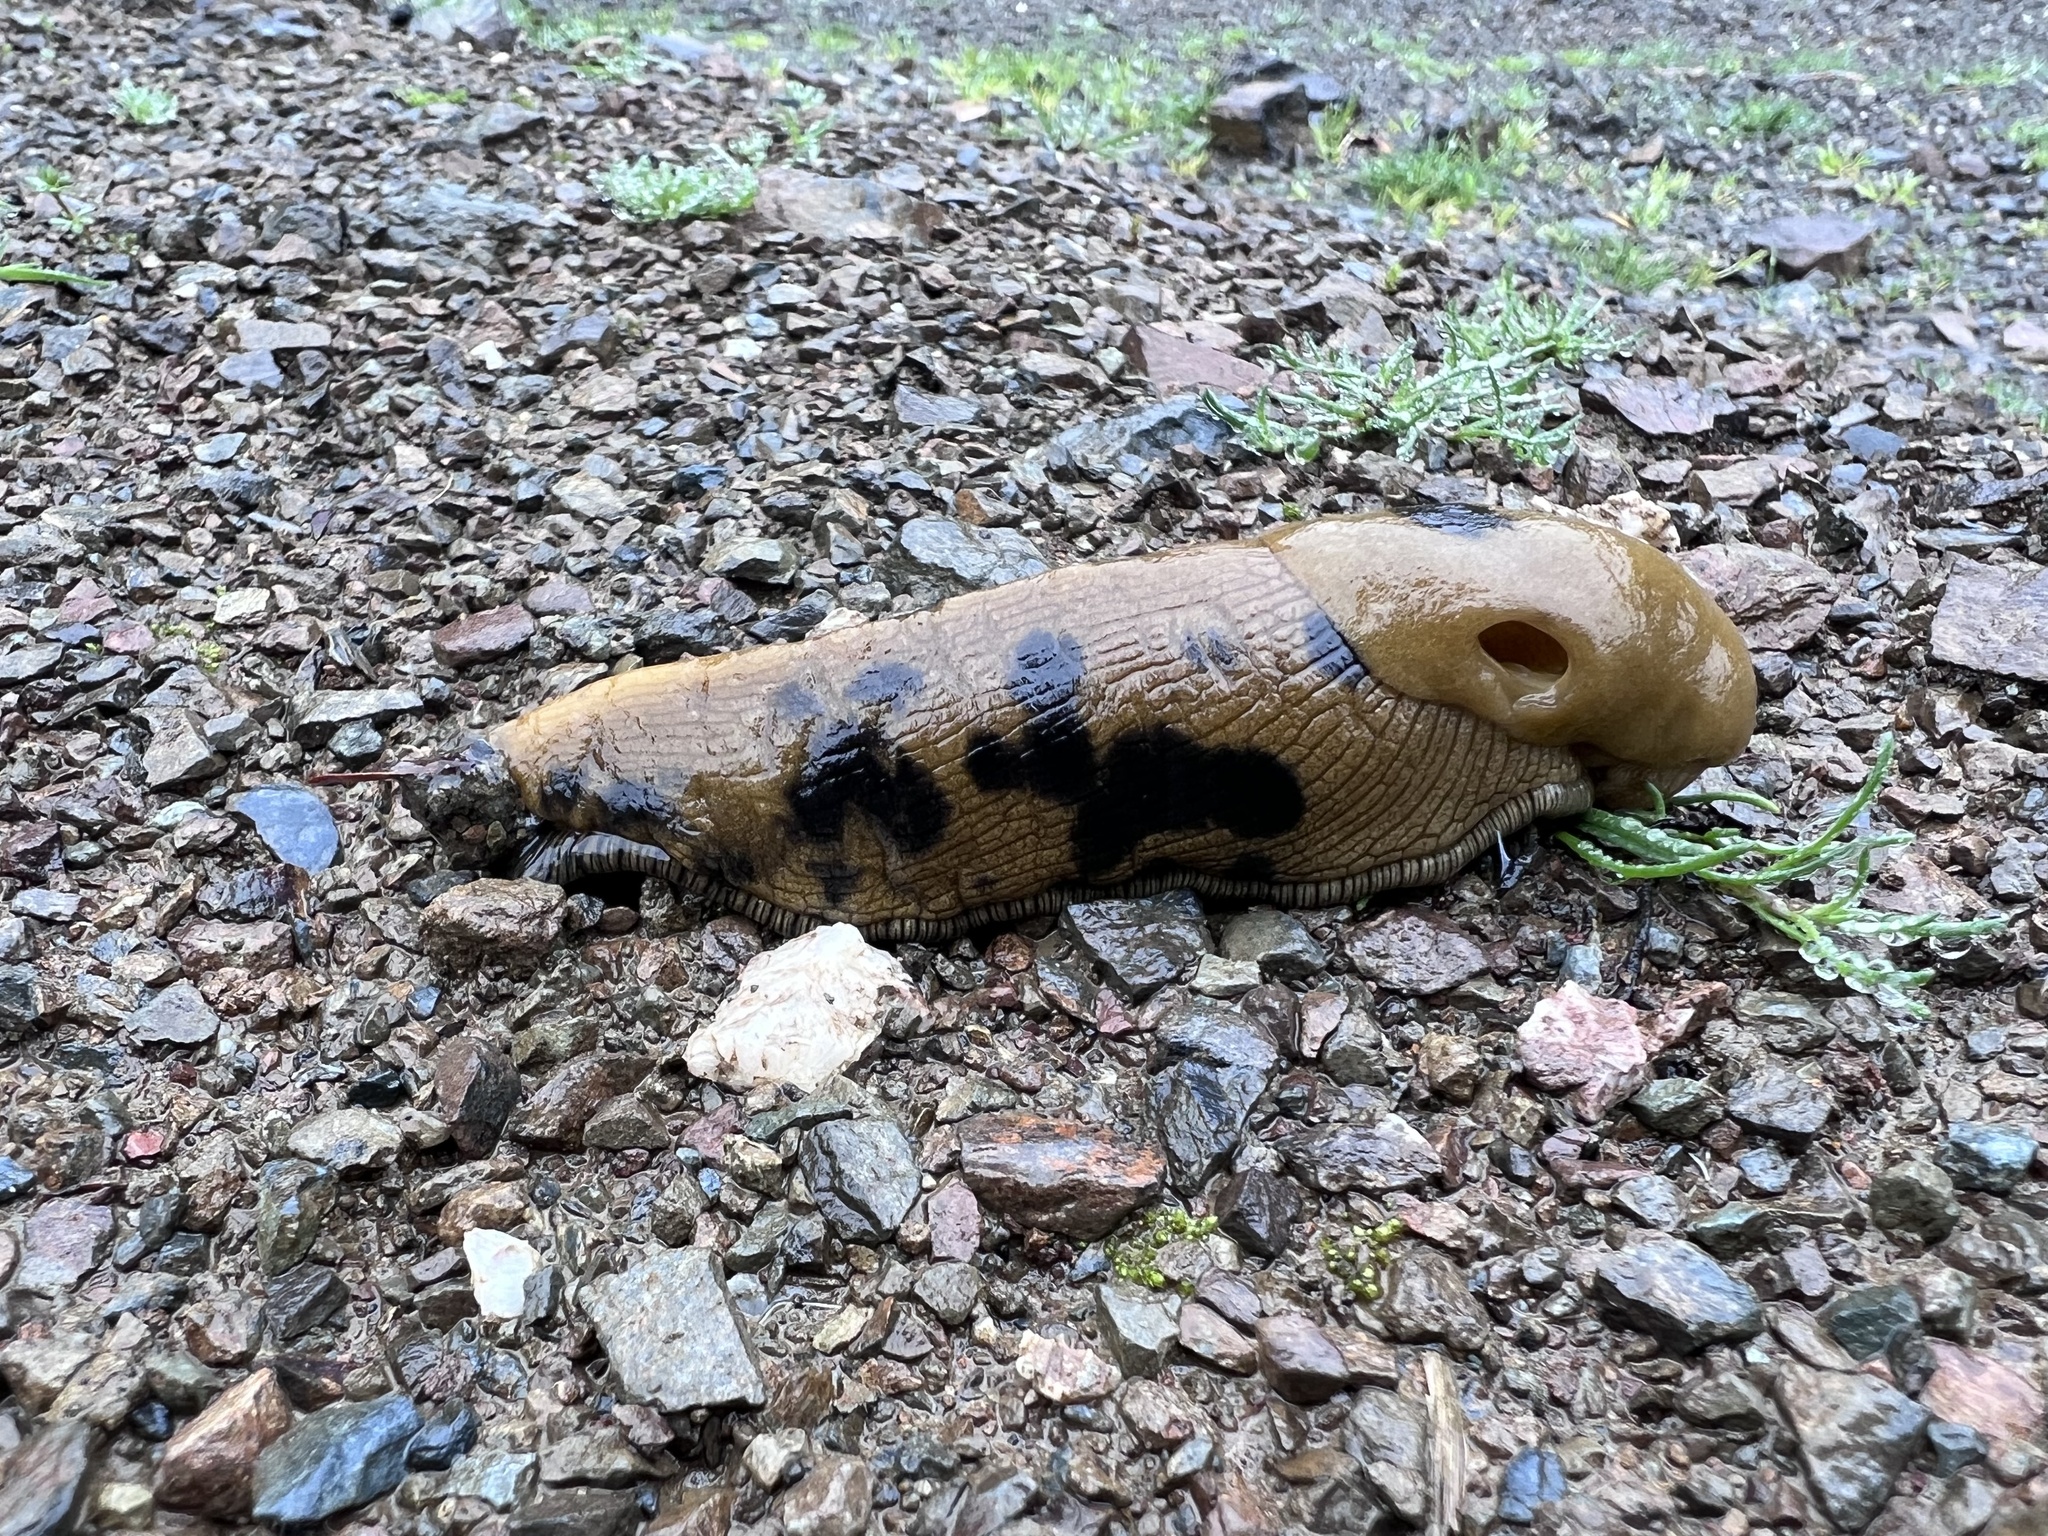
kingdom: Animalia
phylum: Mollusca
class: Gastropoda
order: Stylommatophora
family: Ariolimacidae
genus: Ariolimax
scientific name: Ariolimax columbianus
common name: Pacific banana slug
